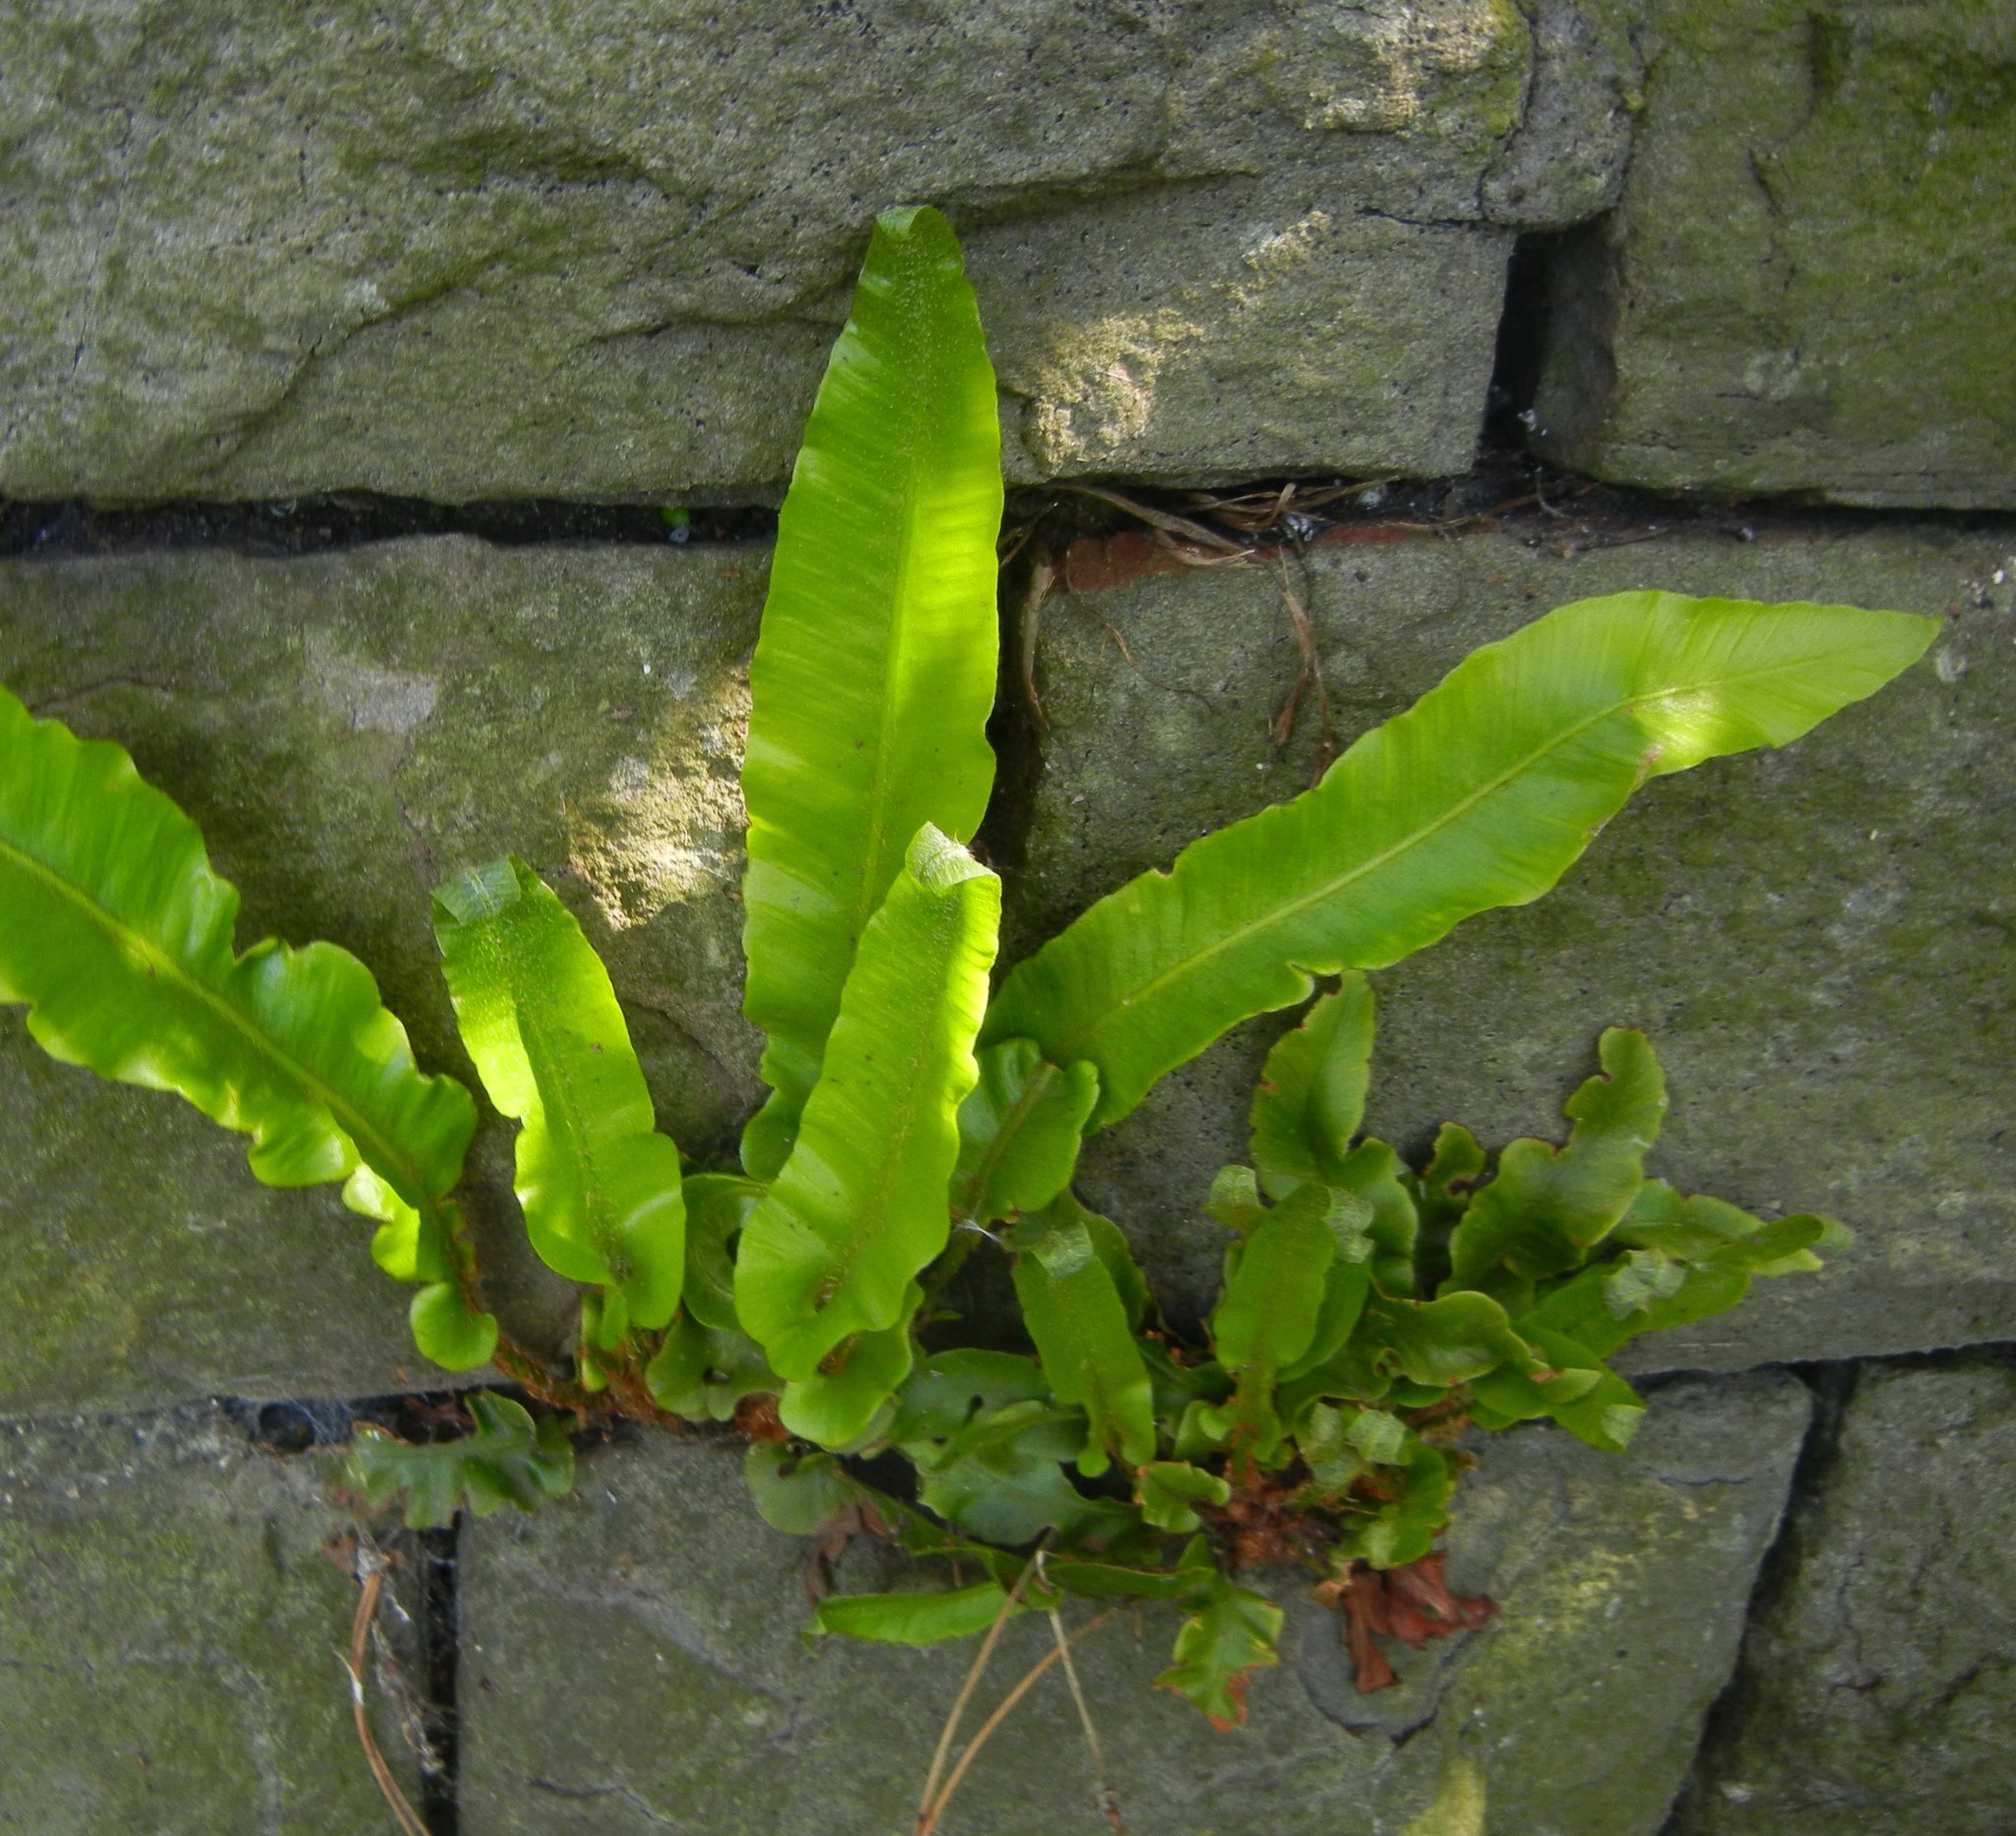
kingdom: Plantae
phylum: Tracheophyta
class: Polypodiopsida
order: Polypodiales
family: Aspleniaceae
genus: Asplenium
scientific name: Asplenium scolopendrium
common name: Hart's-tongue fern
